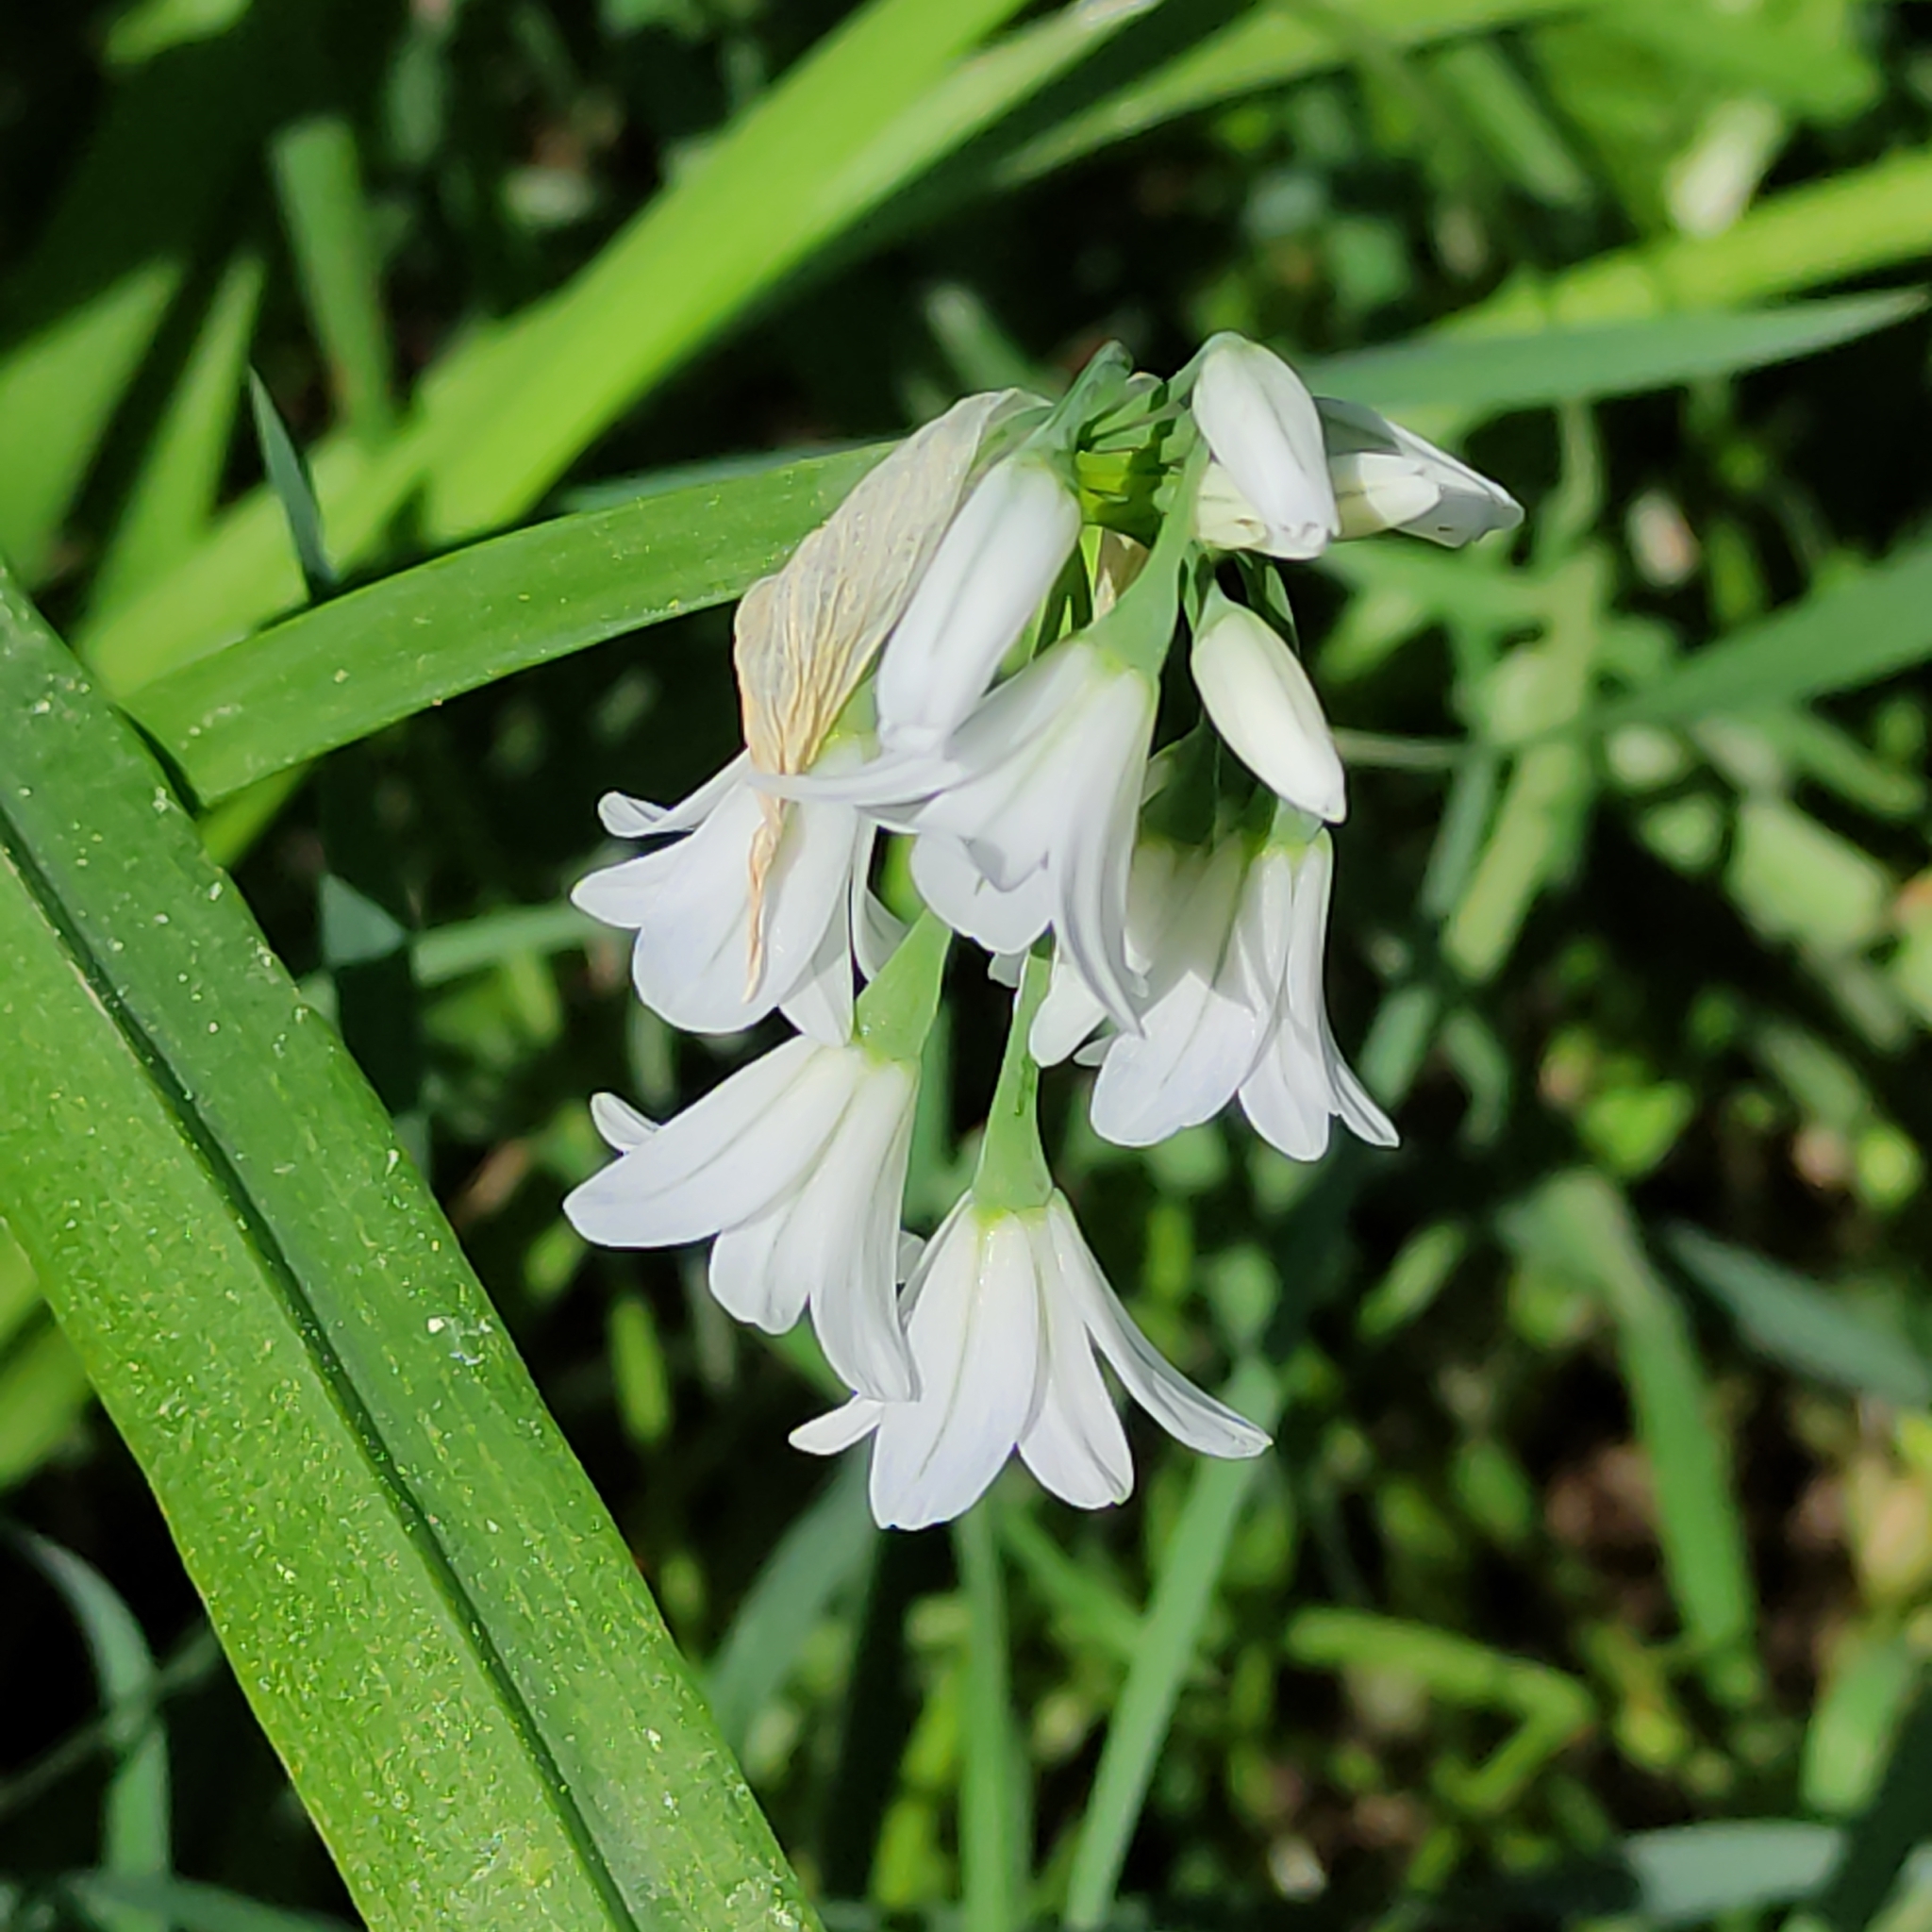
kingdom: Plantae
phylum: Tracheophyta
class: Liliopsida
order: Asparagales
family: Amaryllidaceae
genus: Allium
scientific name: Allium triquetrum
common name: Three-cornered garlic
